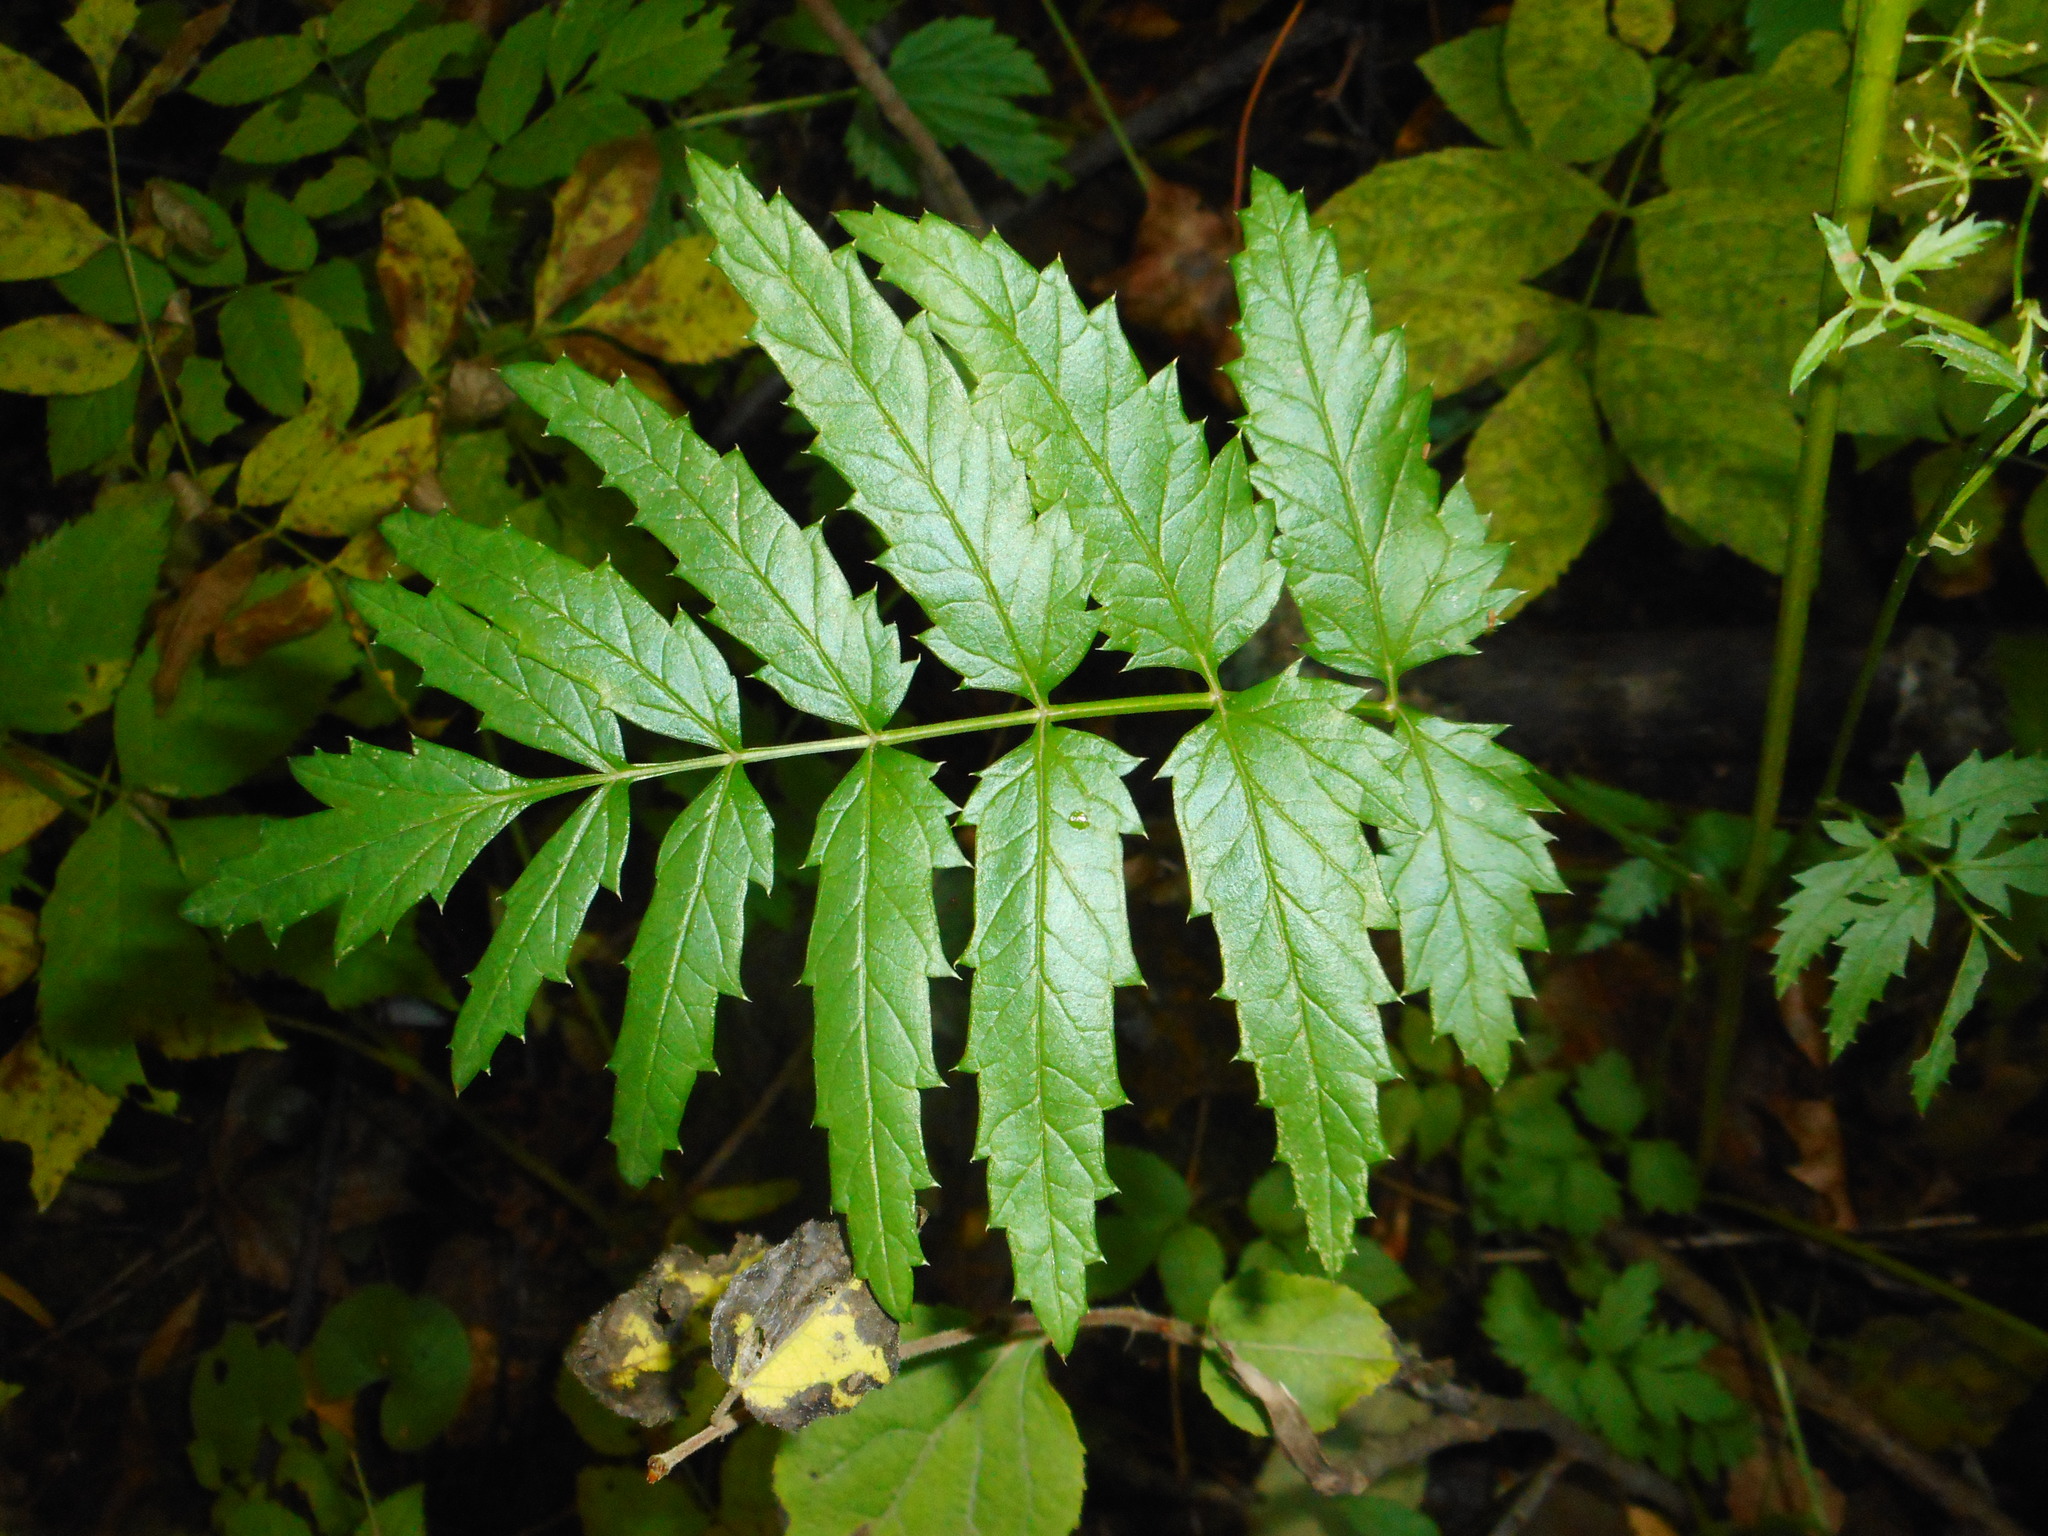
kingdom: Plantae
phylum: Tracheophyta
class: Magnoliopsida
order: Apiales
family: Apiaceae
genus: Pimpinella
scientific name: Pimpinella major
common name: Greater burnet-saxifrage
